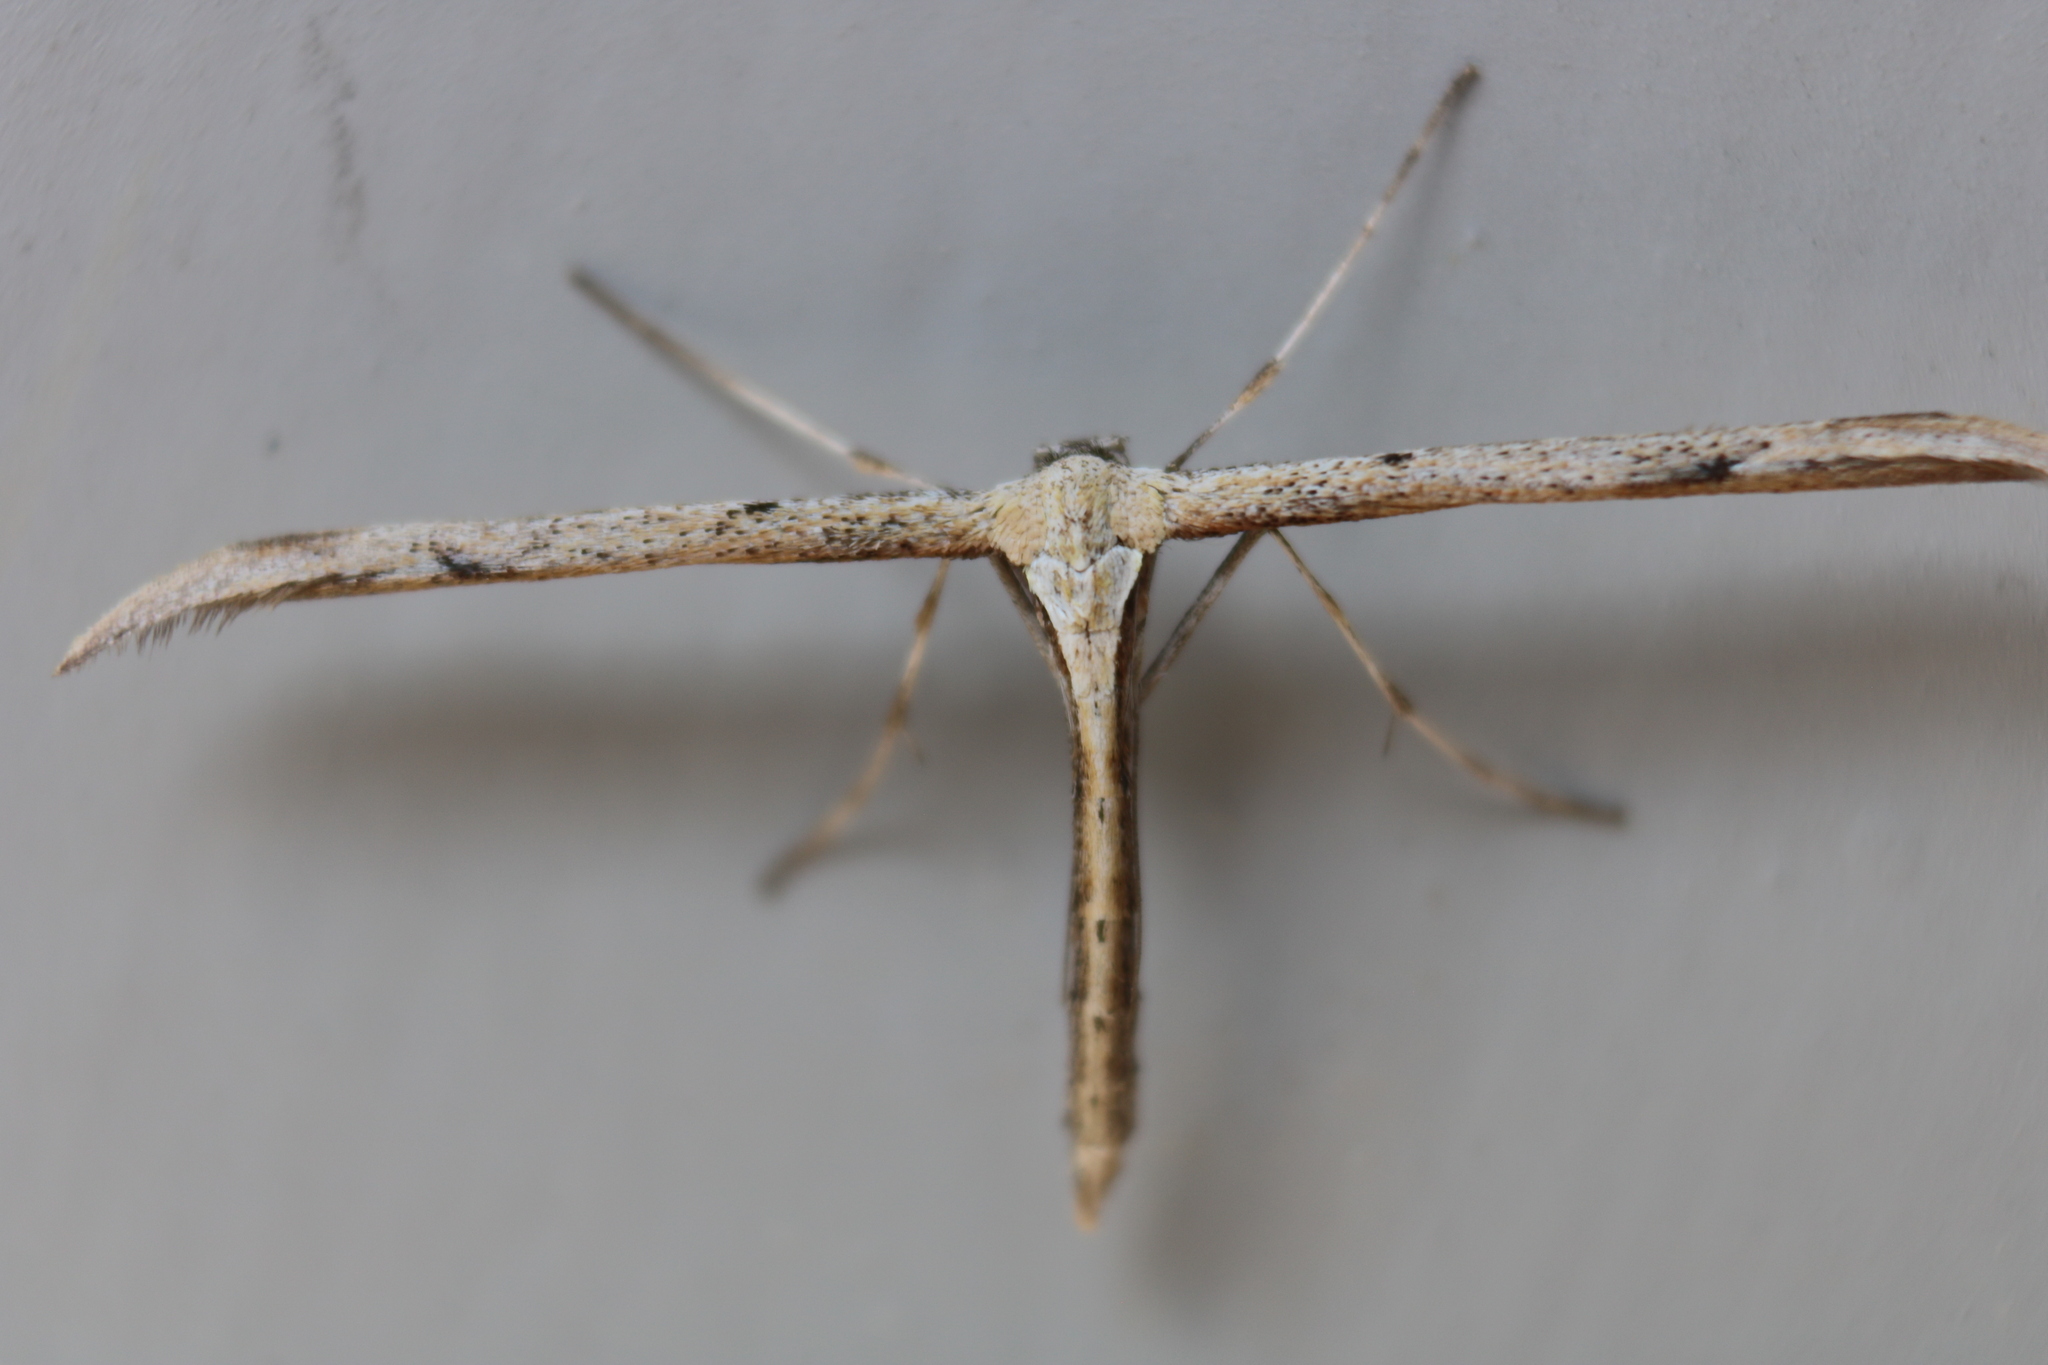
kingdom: Animalia
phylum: Arthropoda
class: Insecta
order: Lepidoptera
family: Pterophoridae
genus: Emmelina
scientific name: Emmelina monodactyla
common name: Common plume
